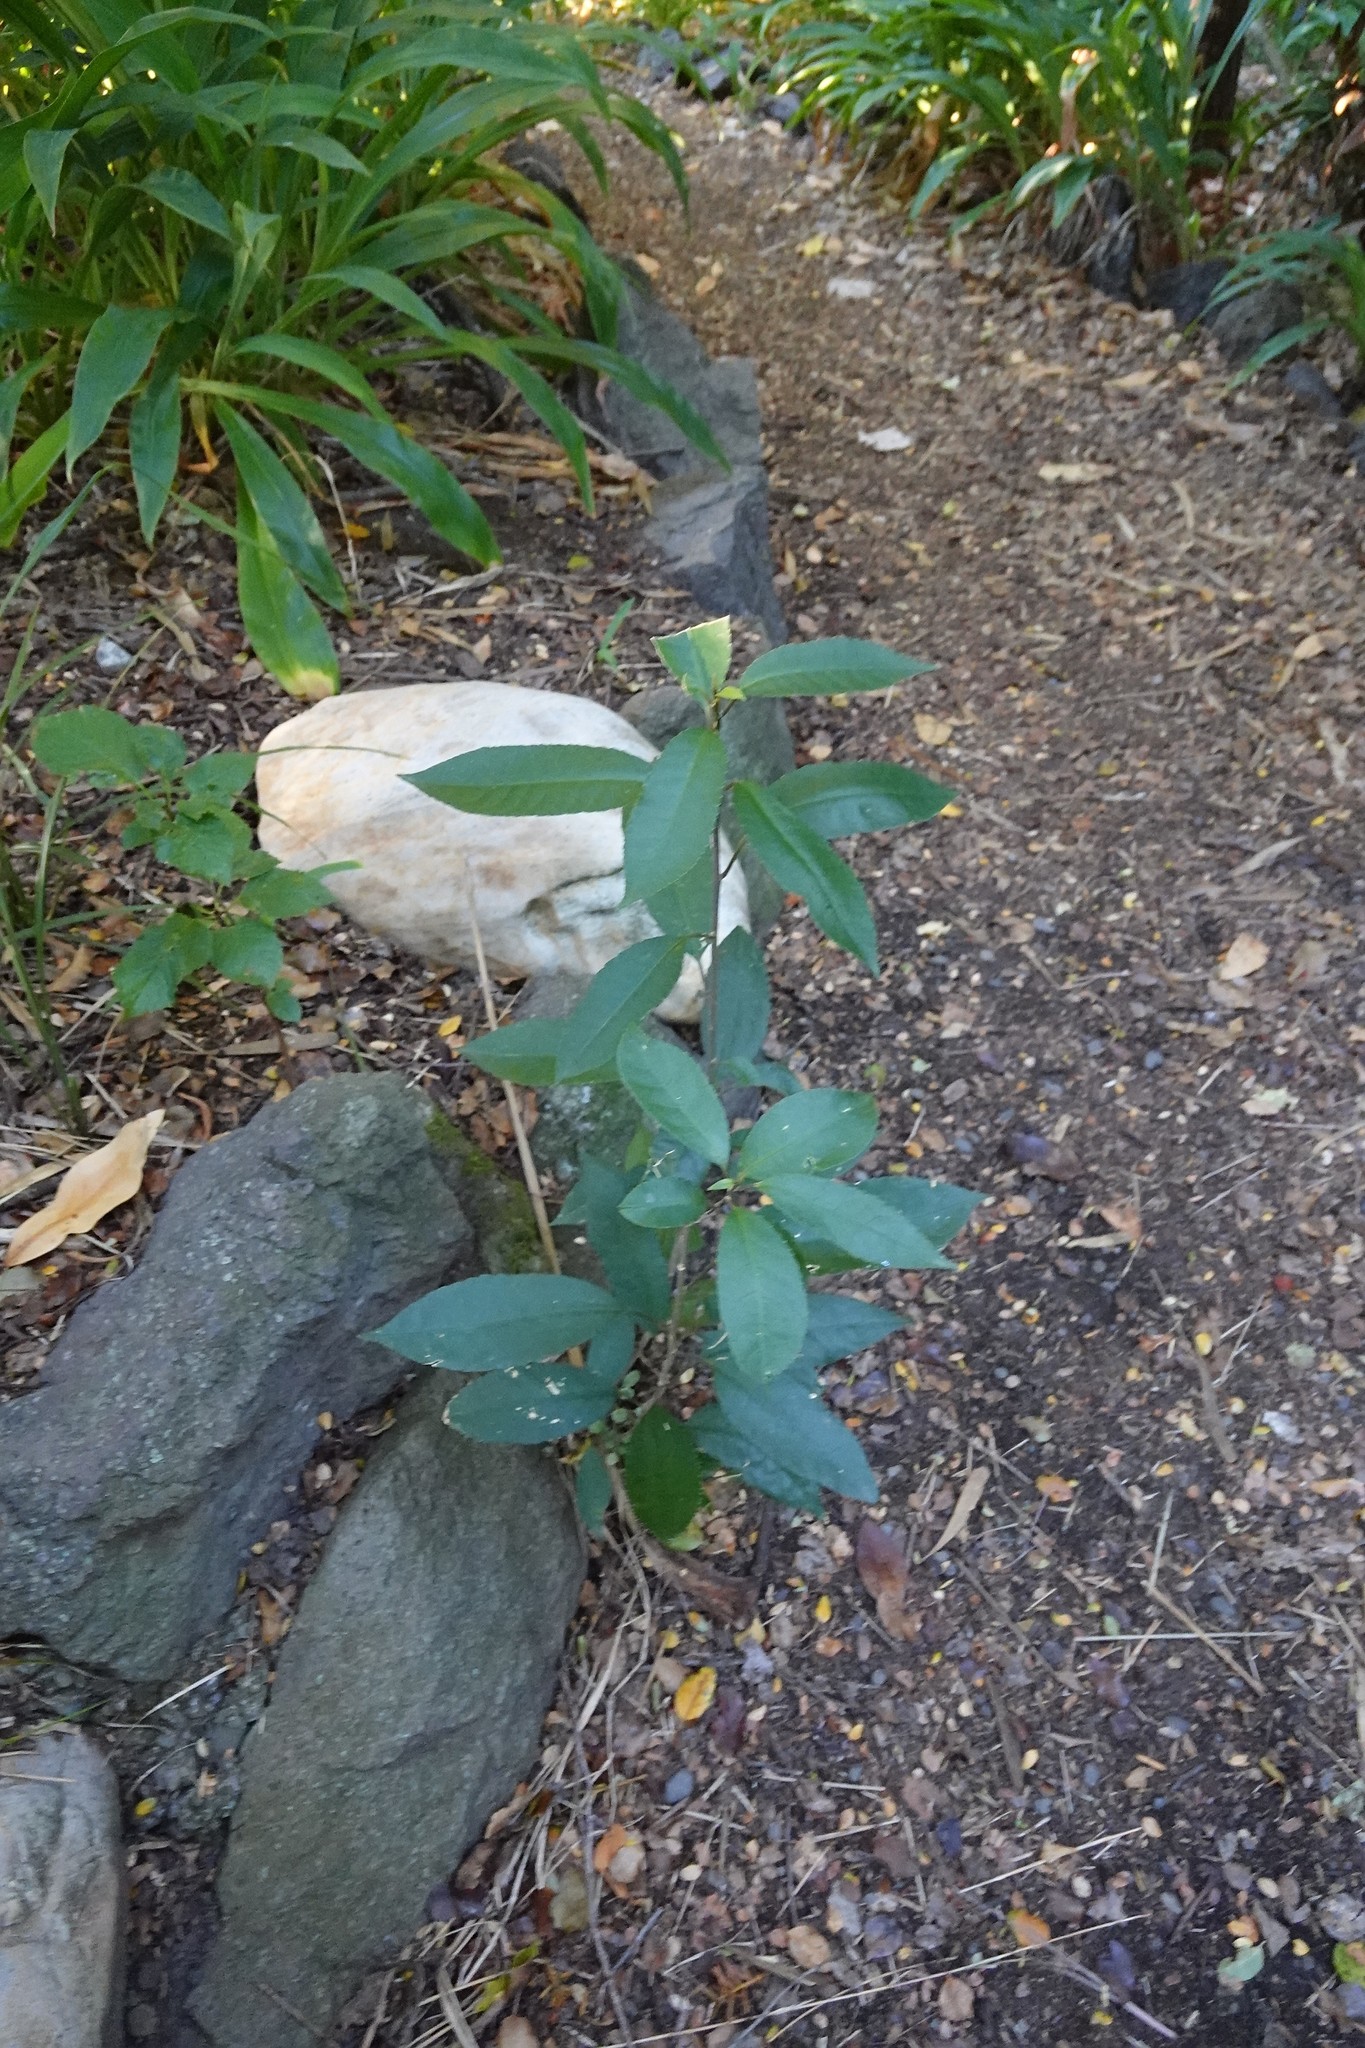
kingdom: Plantae
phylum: Tracheophyta
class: Magnoliopsida
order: Malpighiales
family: Violaceae
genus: Melicytus
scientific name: Melicytus ramiflorus
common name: Mahoe
